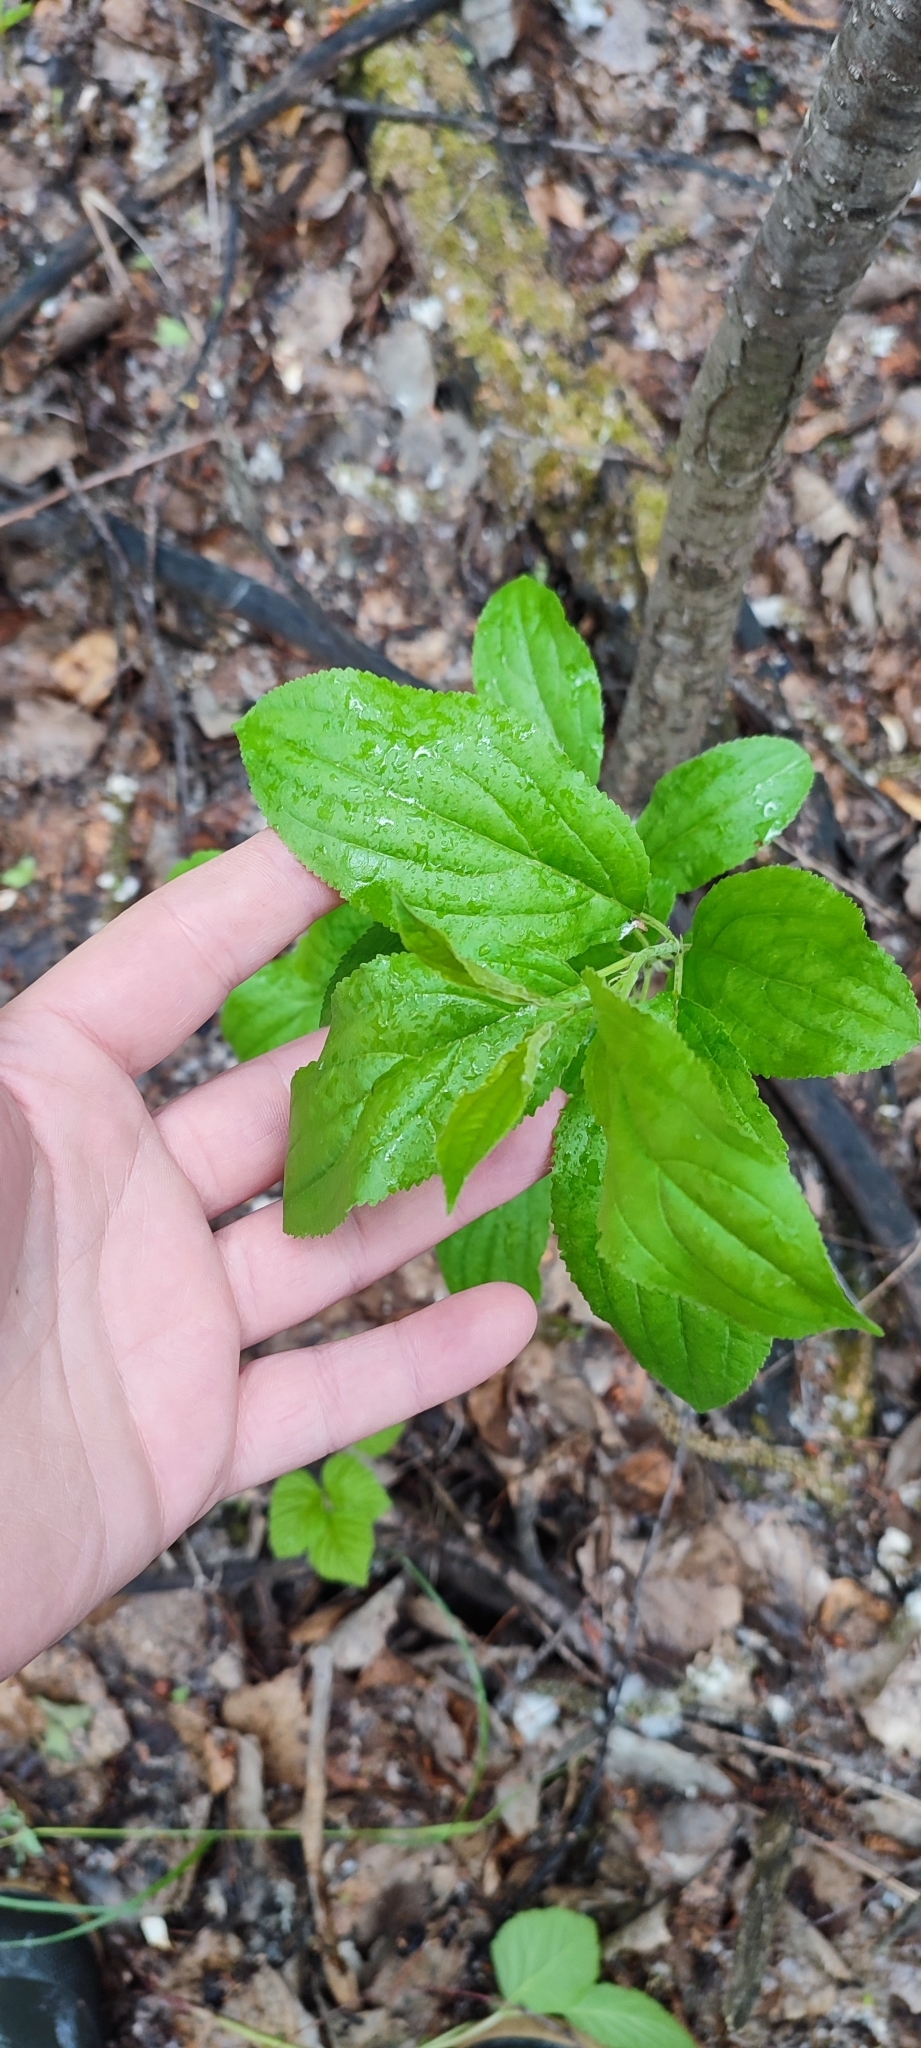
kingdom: Plantae
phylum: Tracheophyta
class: Magnoliopsida
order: Rosales
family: Rhamnaceae
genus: Rhamnus
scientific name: Rhamnus cathartica
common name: Common buckthorn
